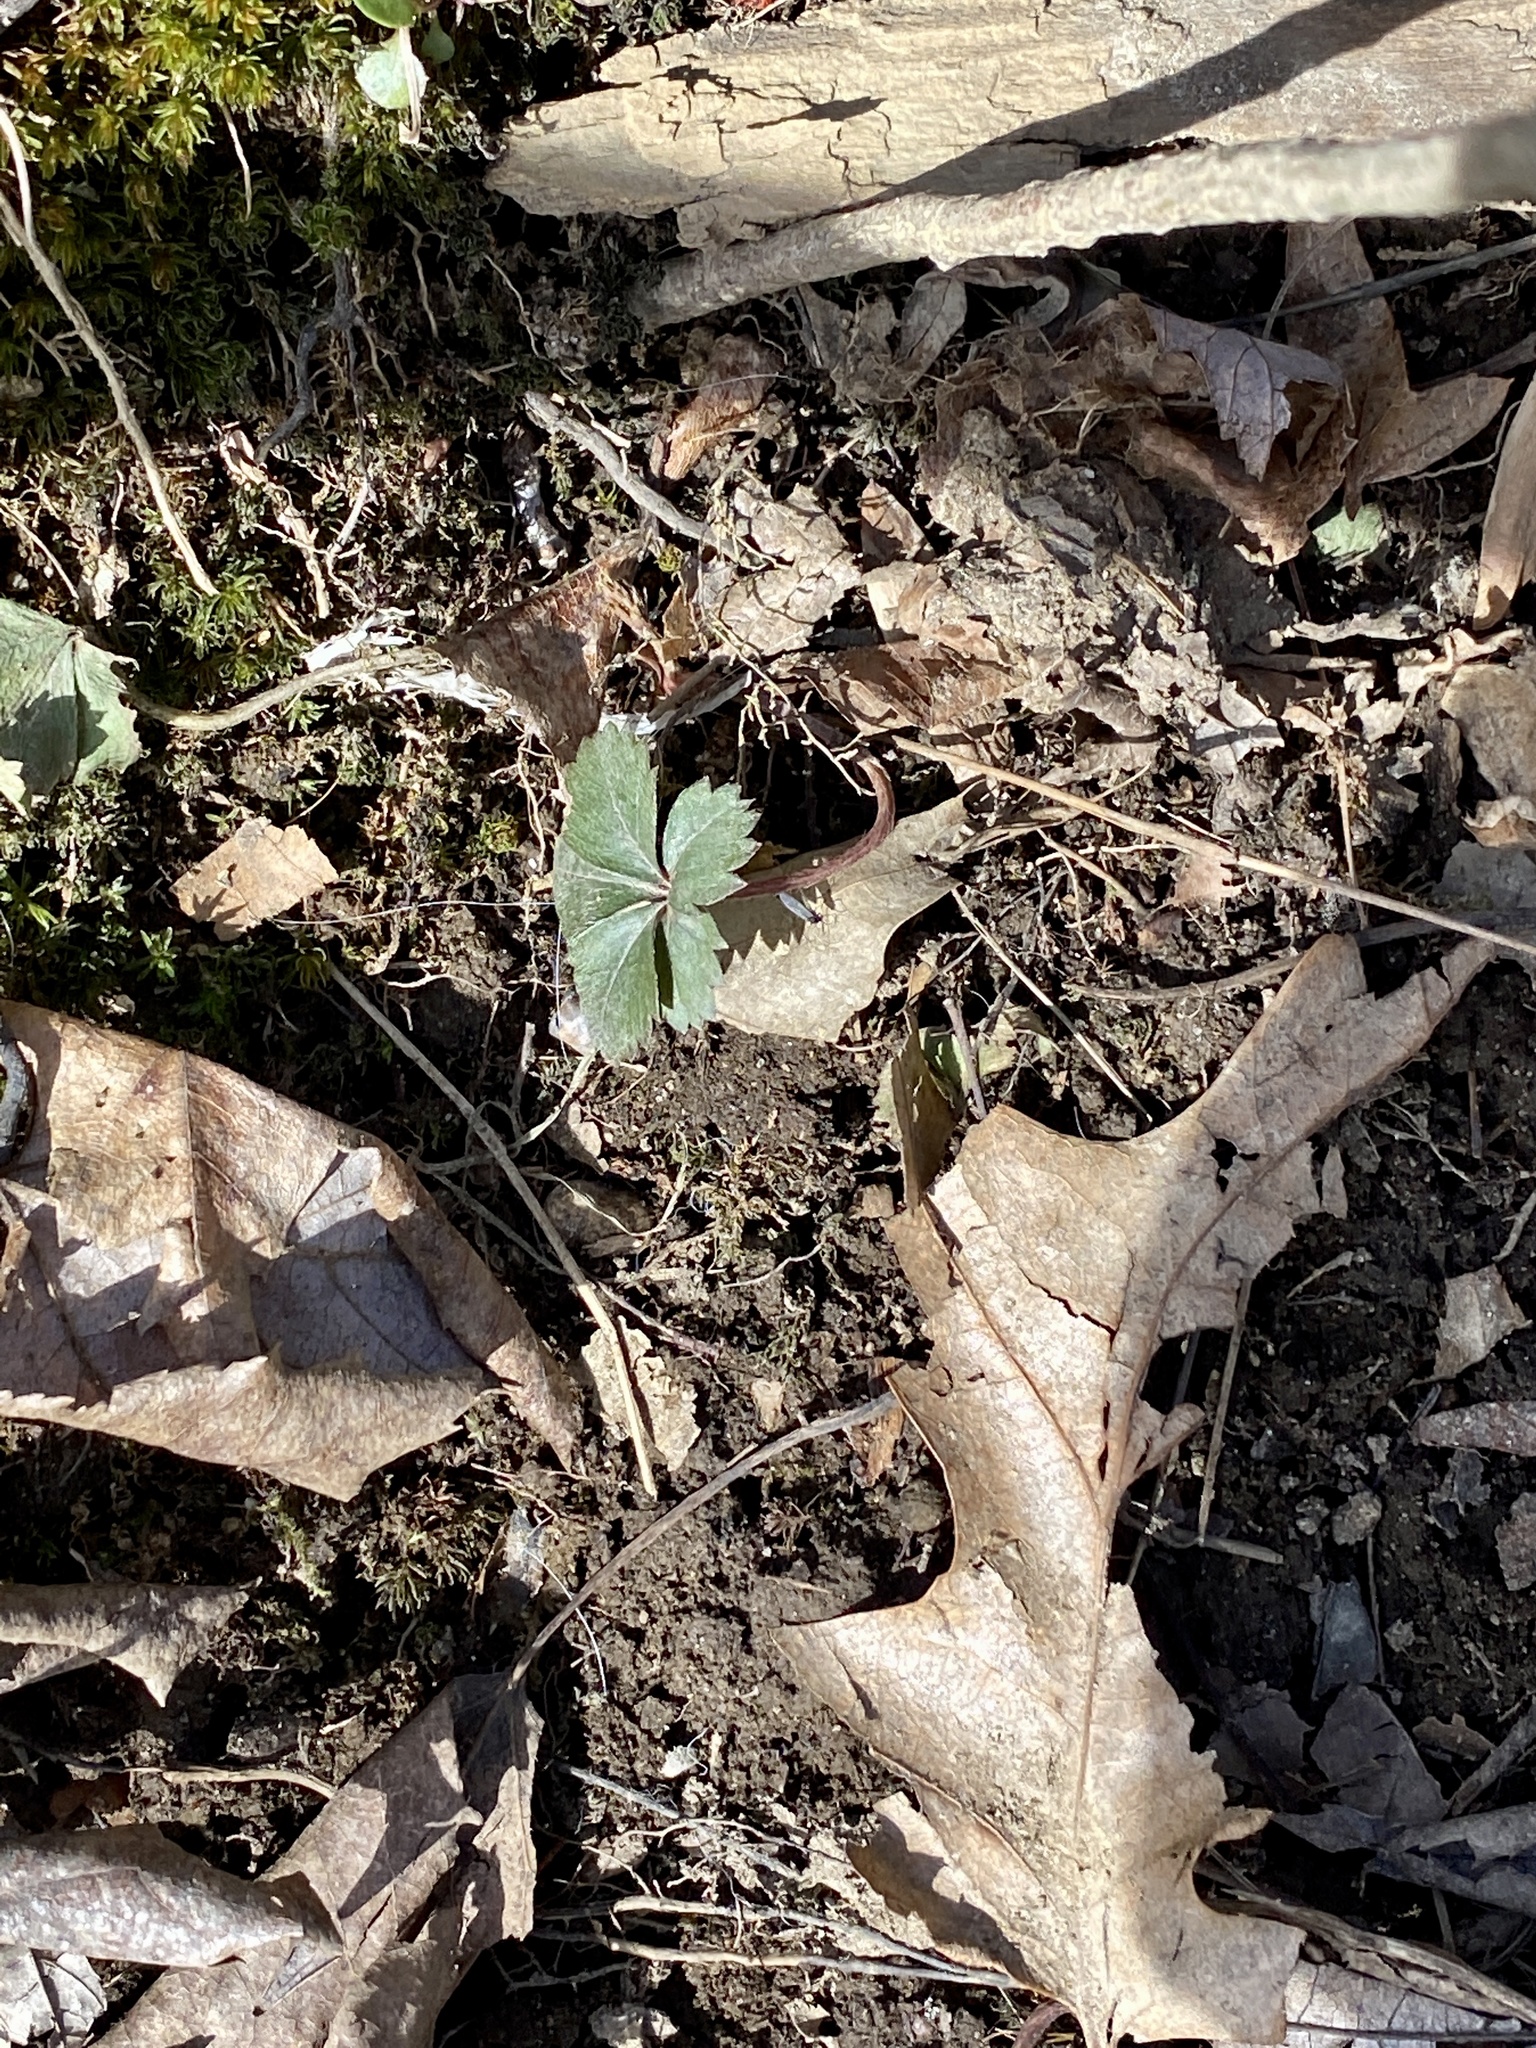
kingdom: Plantae
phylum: Tracheophyta
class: Magnoliopsida
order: Rosales
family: Rosaceae
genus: Potentilla
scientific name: Potentilla canadensis
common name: Canada cinquefoil
